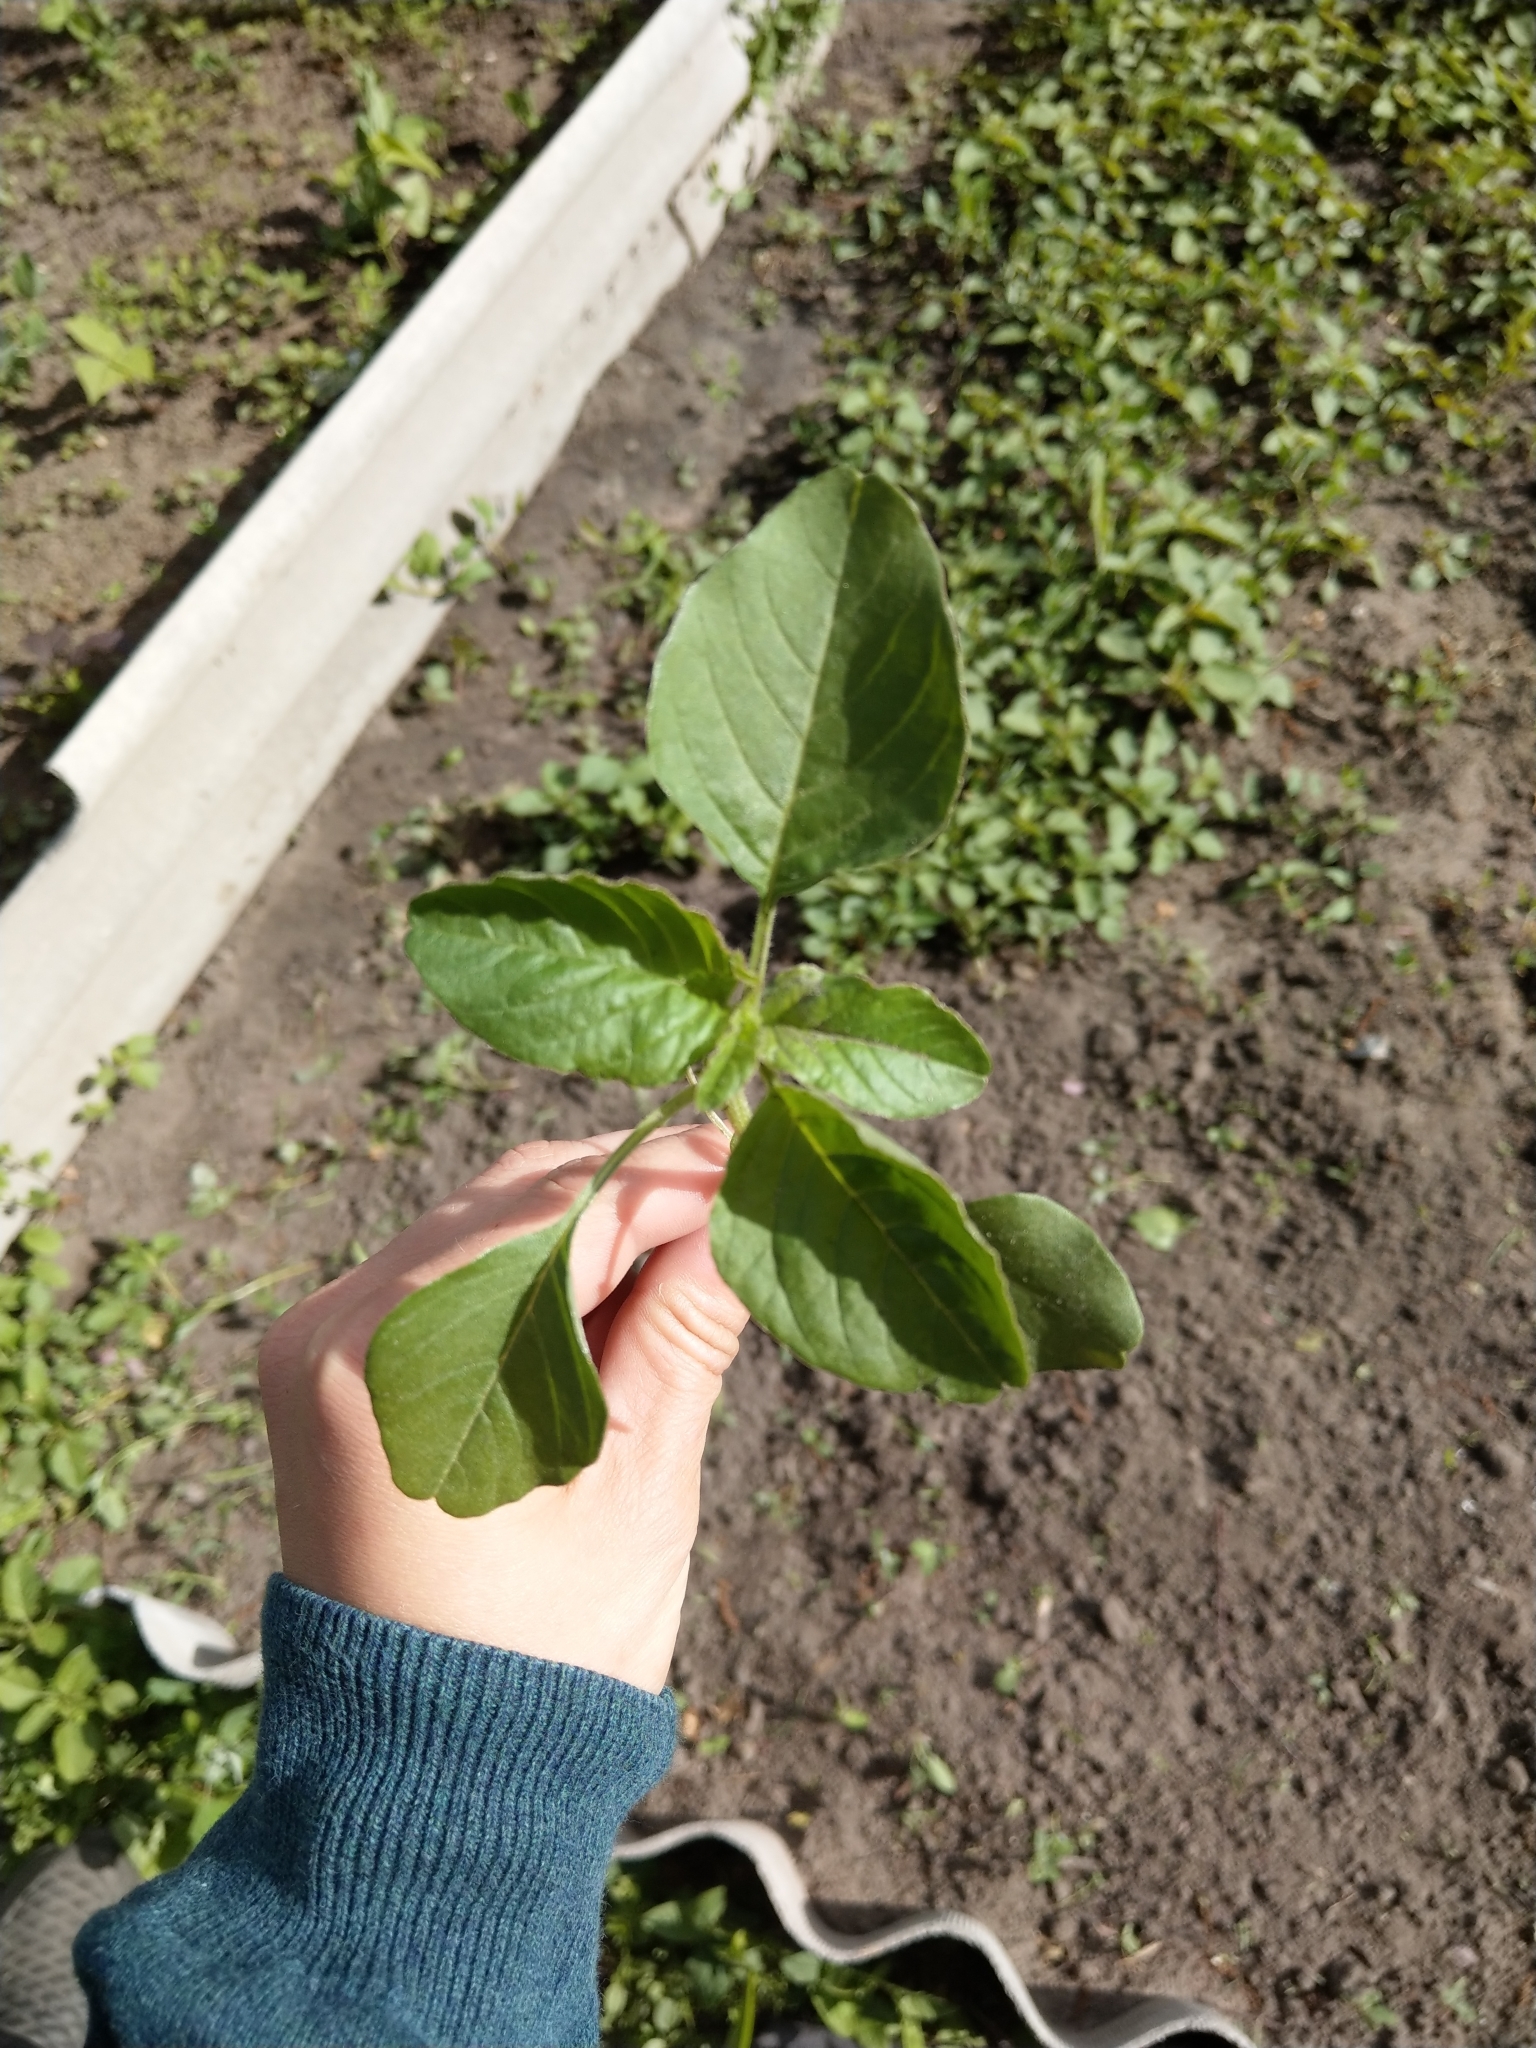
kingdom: Plantae
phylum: Tracheophyta
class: Magnoliopsida
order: Caryophyllales
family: Amaranthaceae
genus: Amaranthus
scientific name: Amaranthus retroflexus
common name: Redroot amaranth
